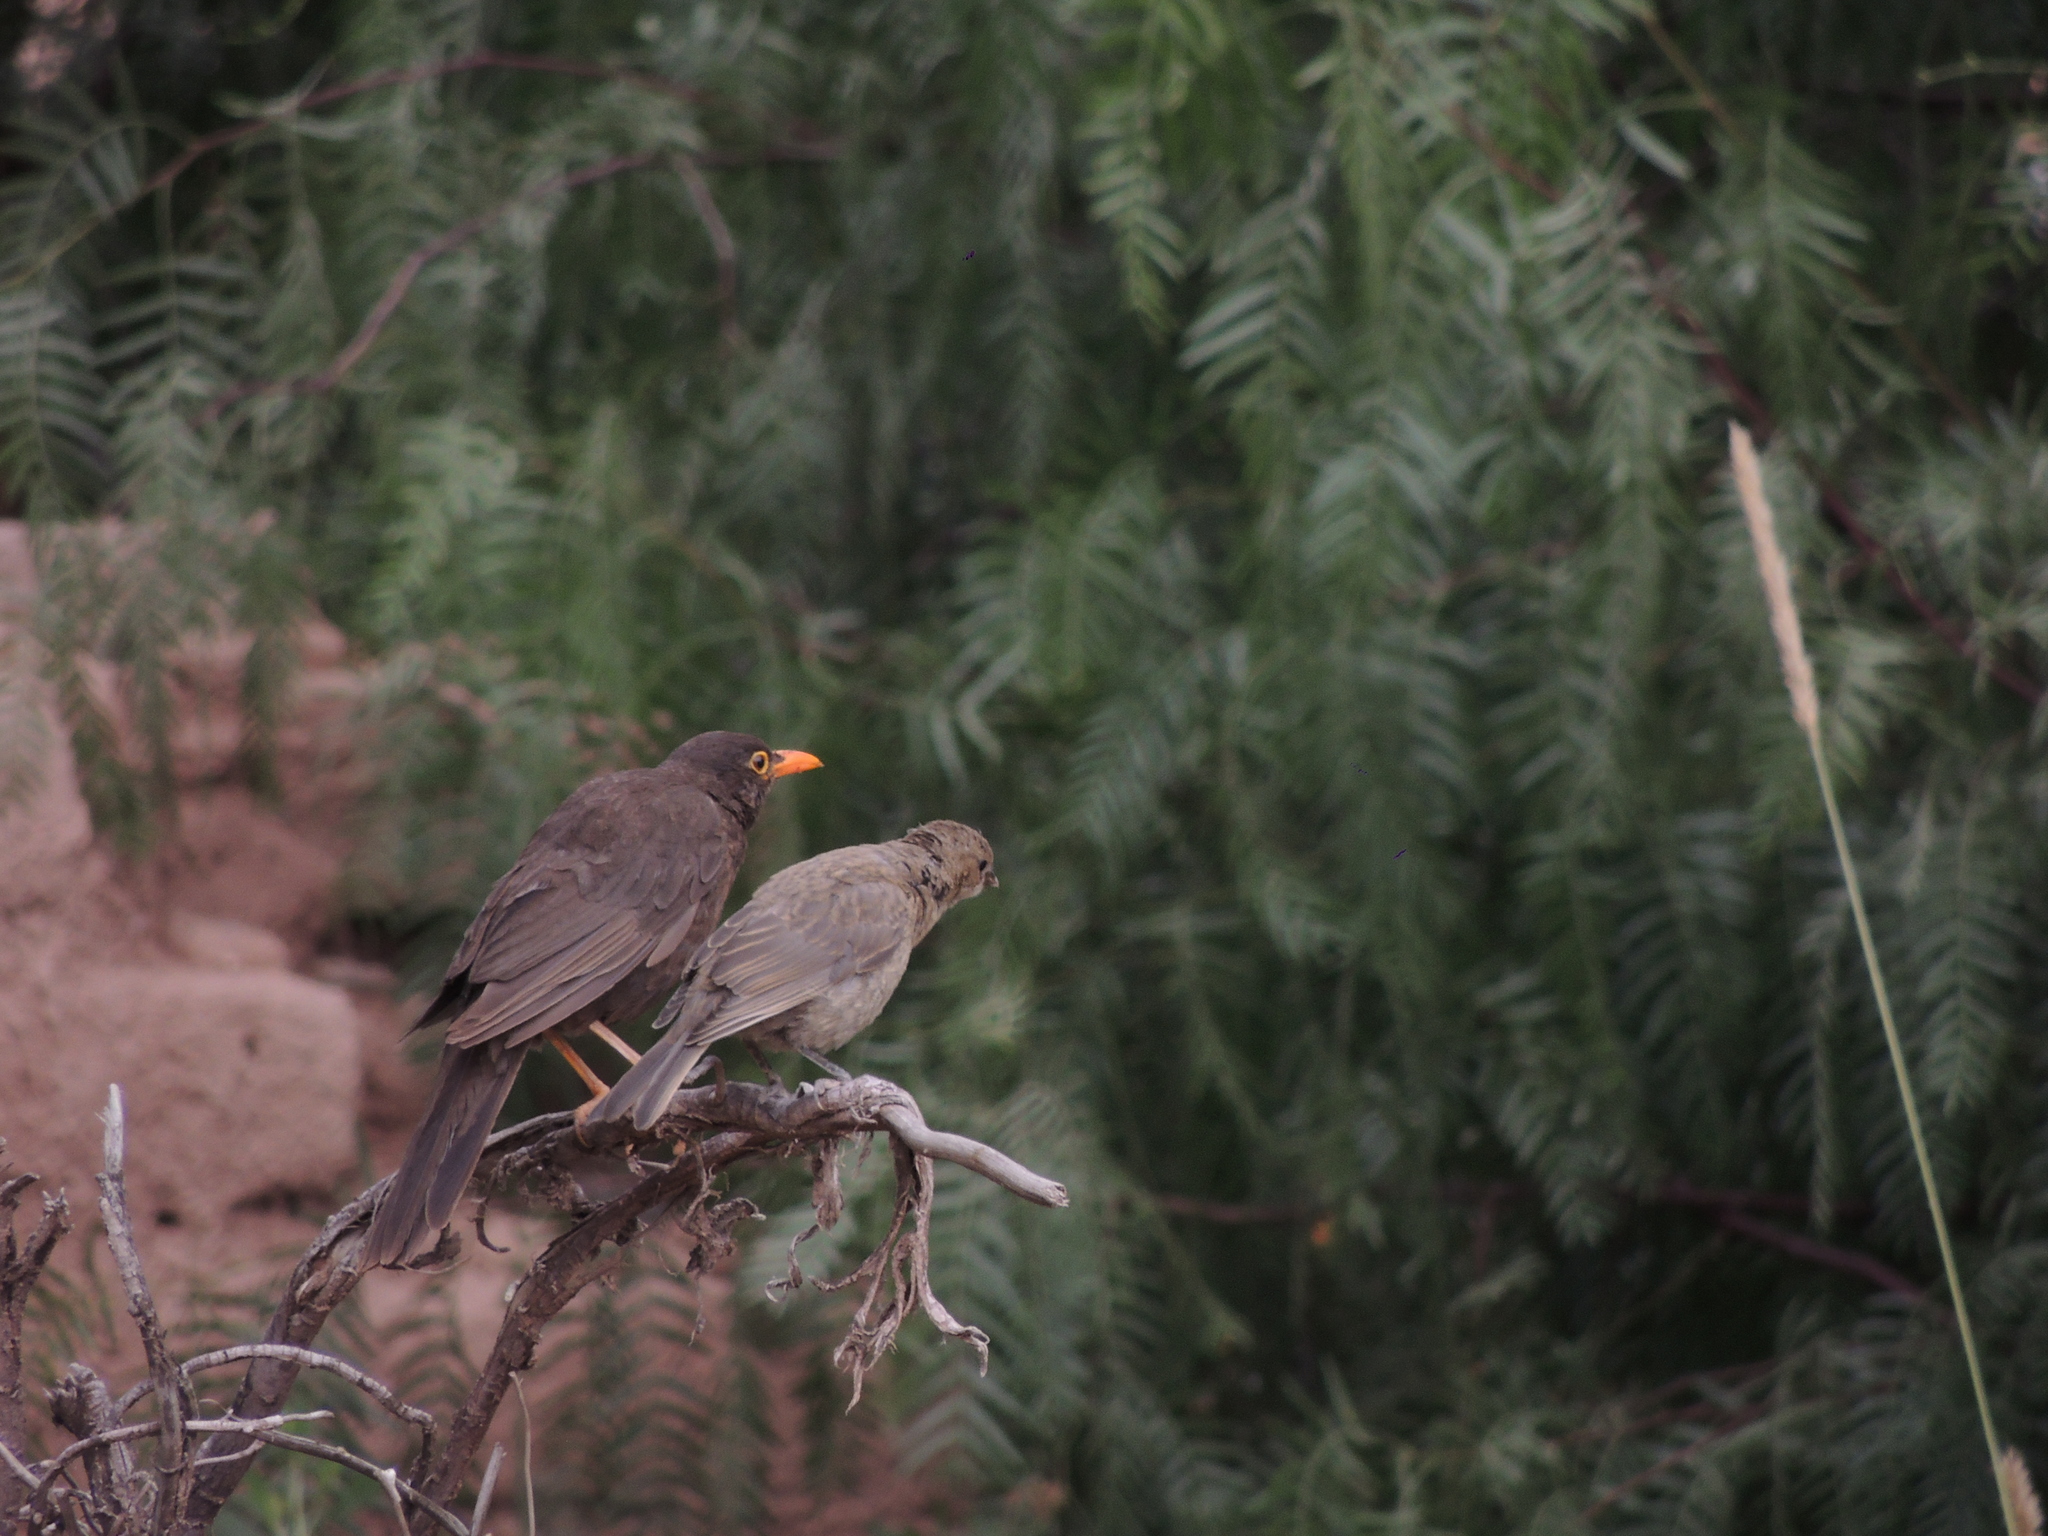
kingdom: Animalia
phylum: Chordata
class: Aves
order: Passeriformes
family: Turdidae
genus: Turdus
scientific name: Turdus chiguanco
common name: Chiguanco thrush
